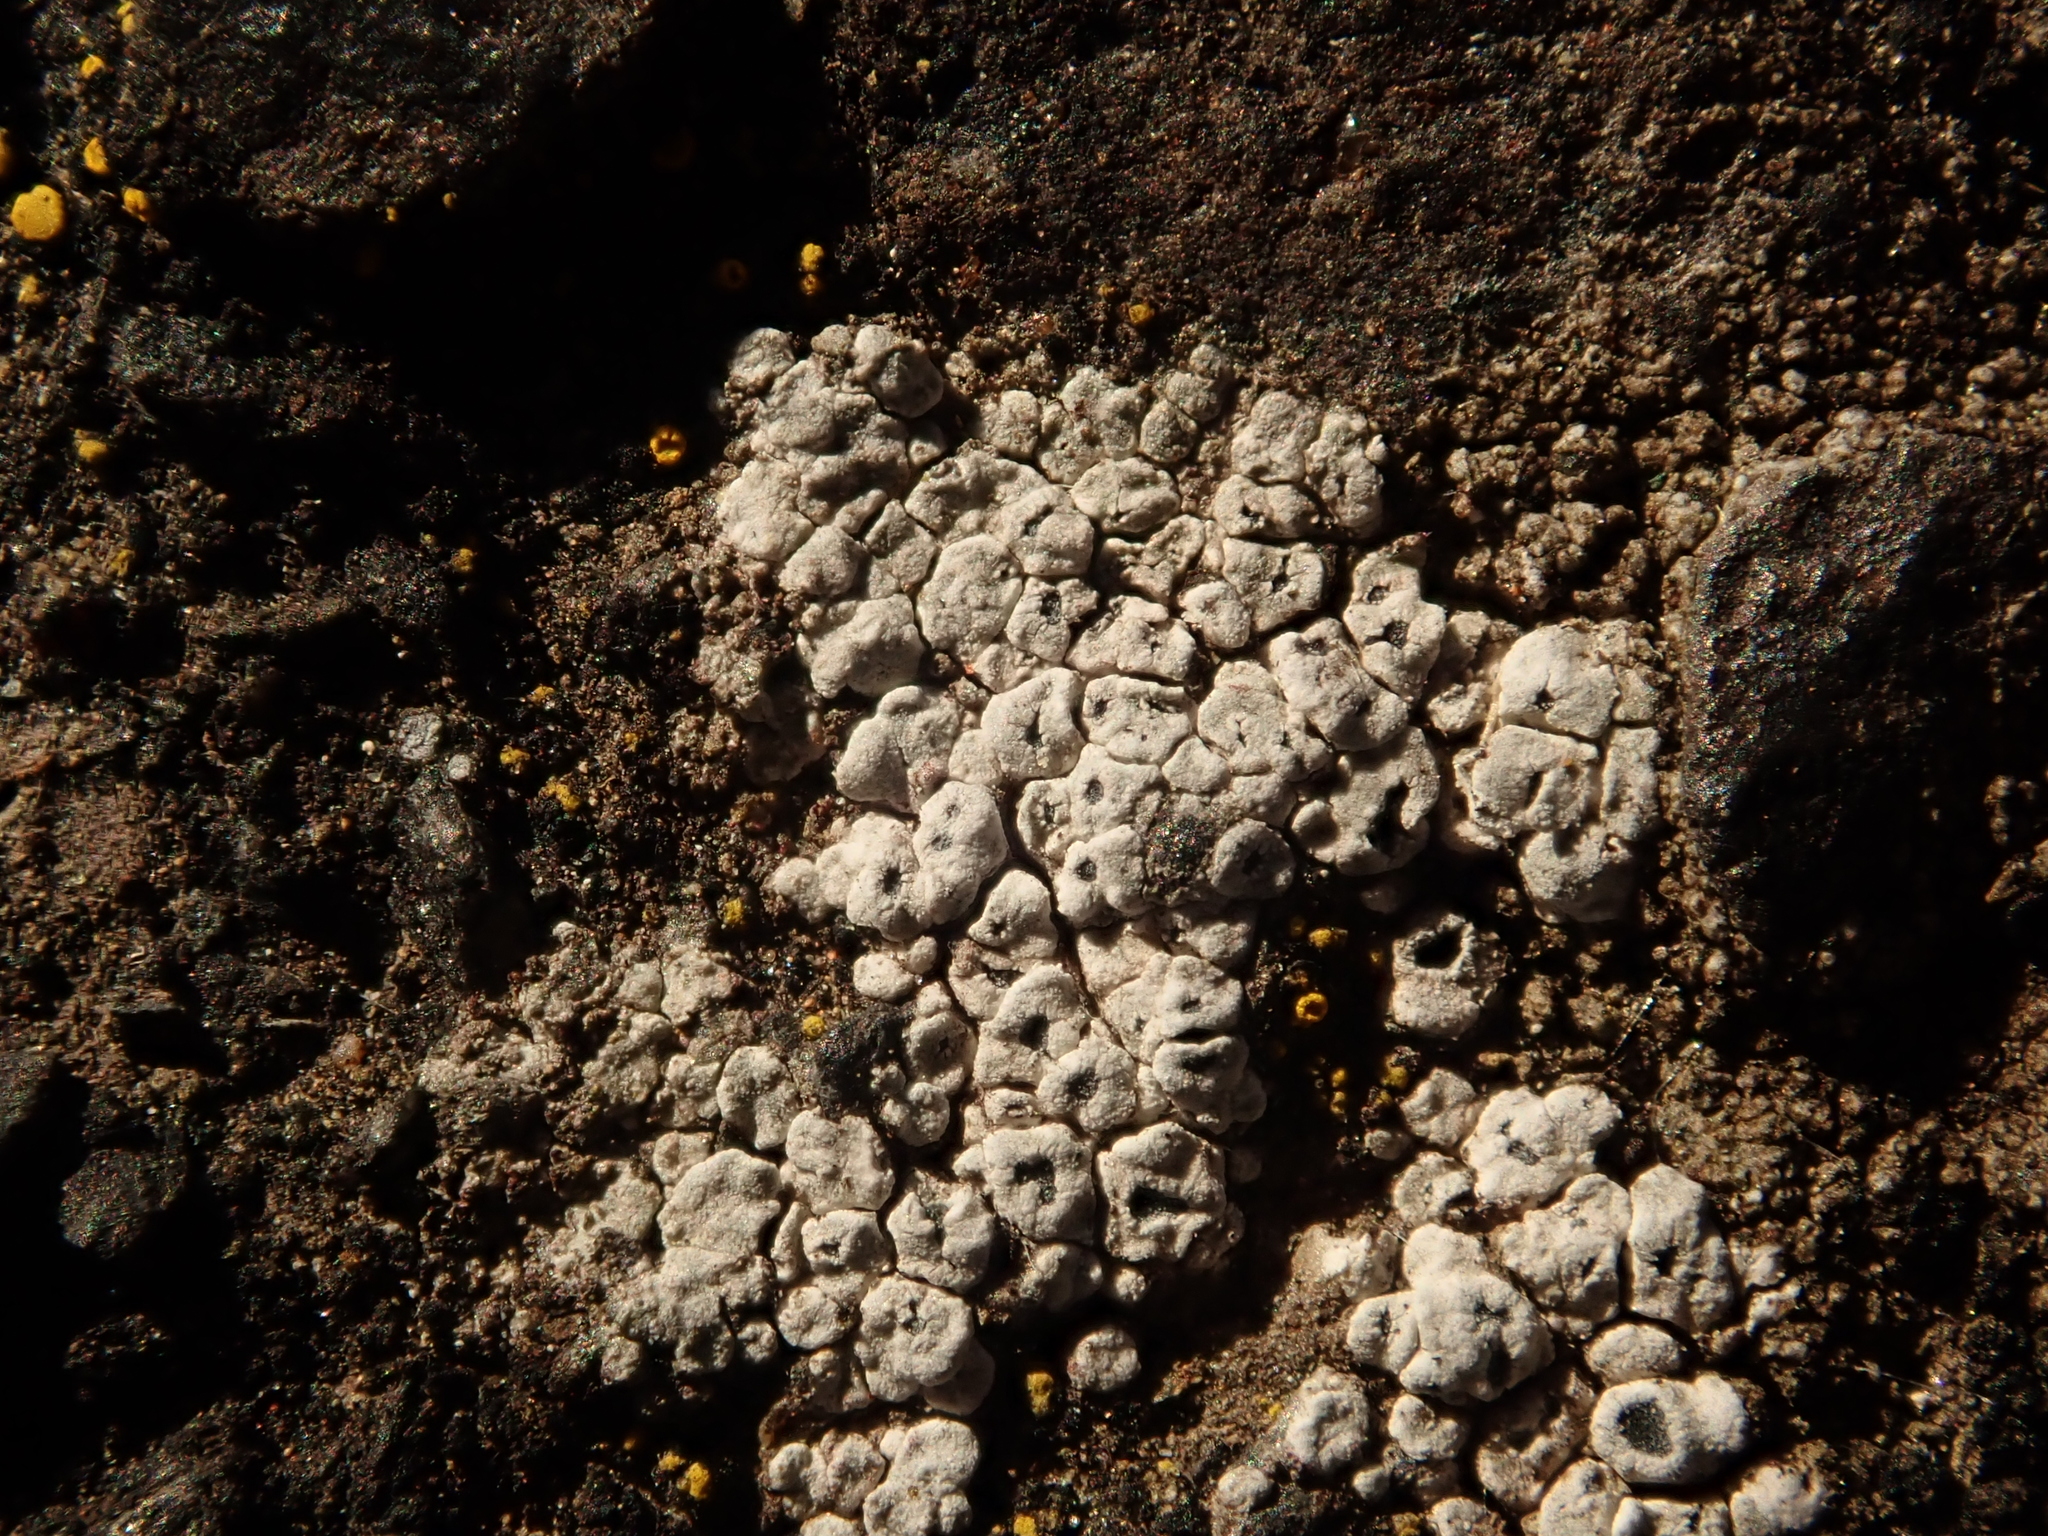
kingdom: Fungi
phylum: Ascomycota
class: Lecanoromycetes
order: Pertusariales
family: Megasporaceae
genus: Circinaria
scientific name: Circinaria contorta
